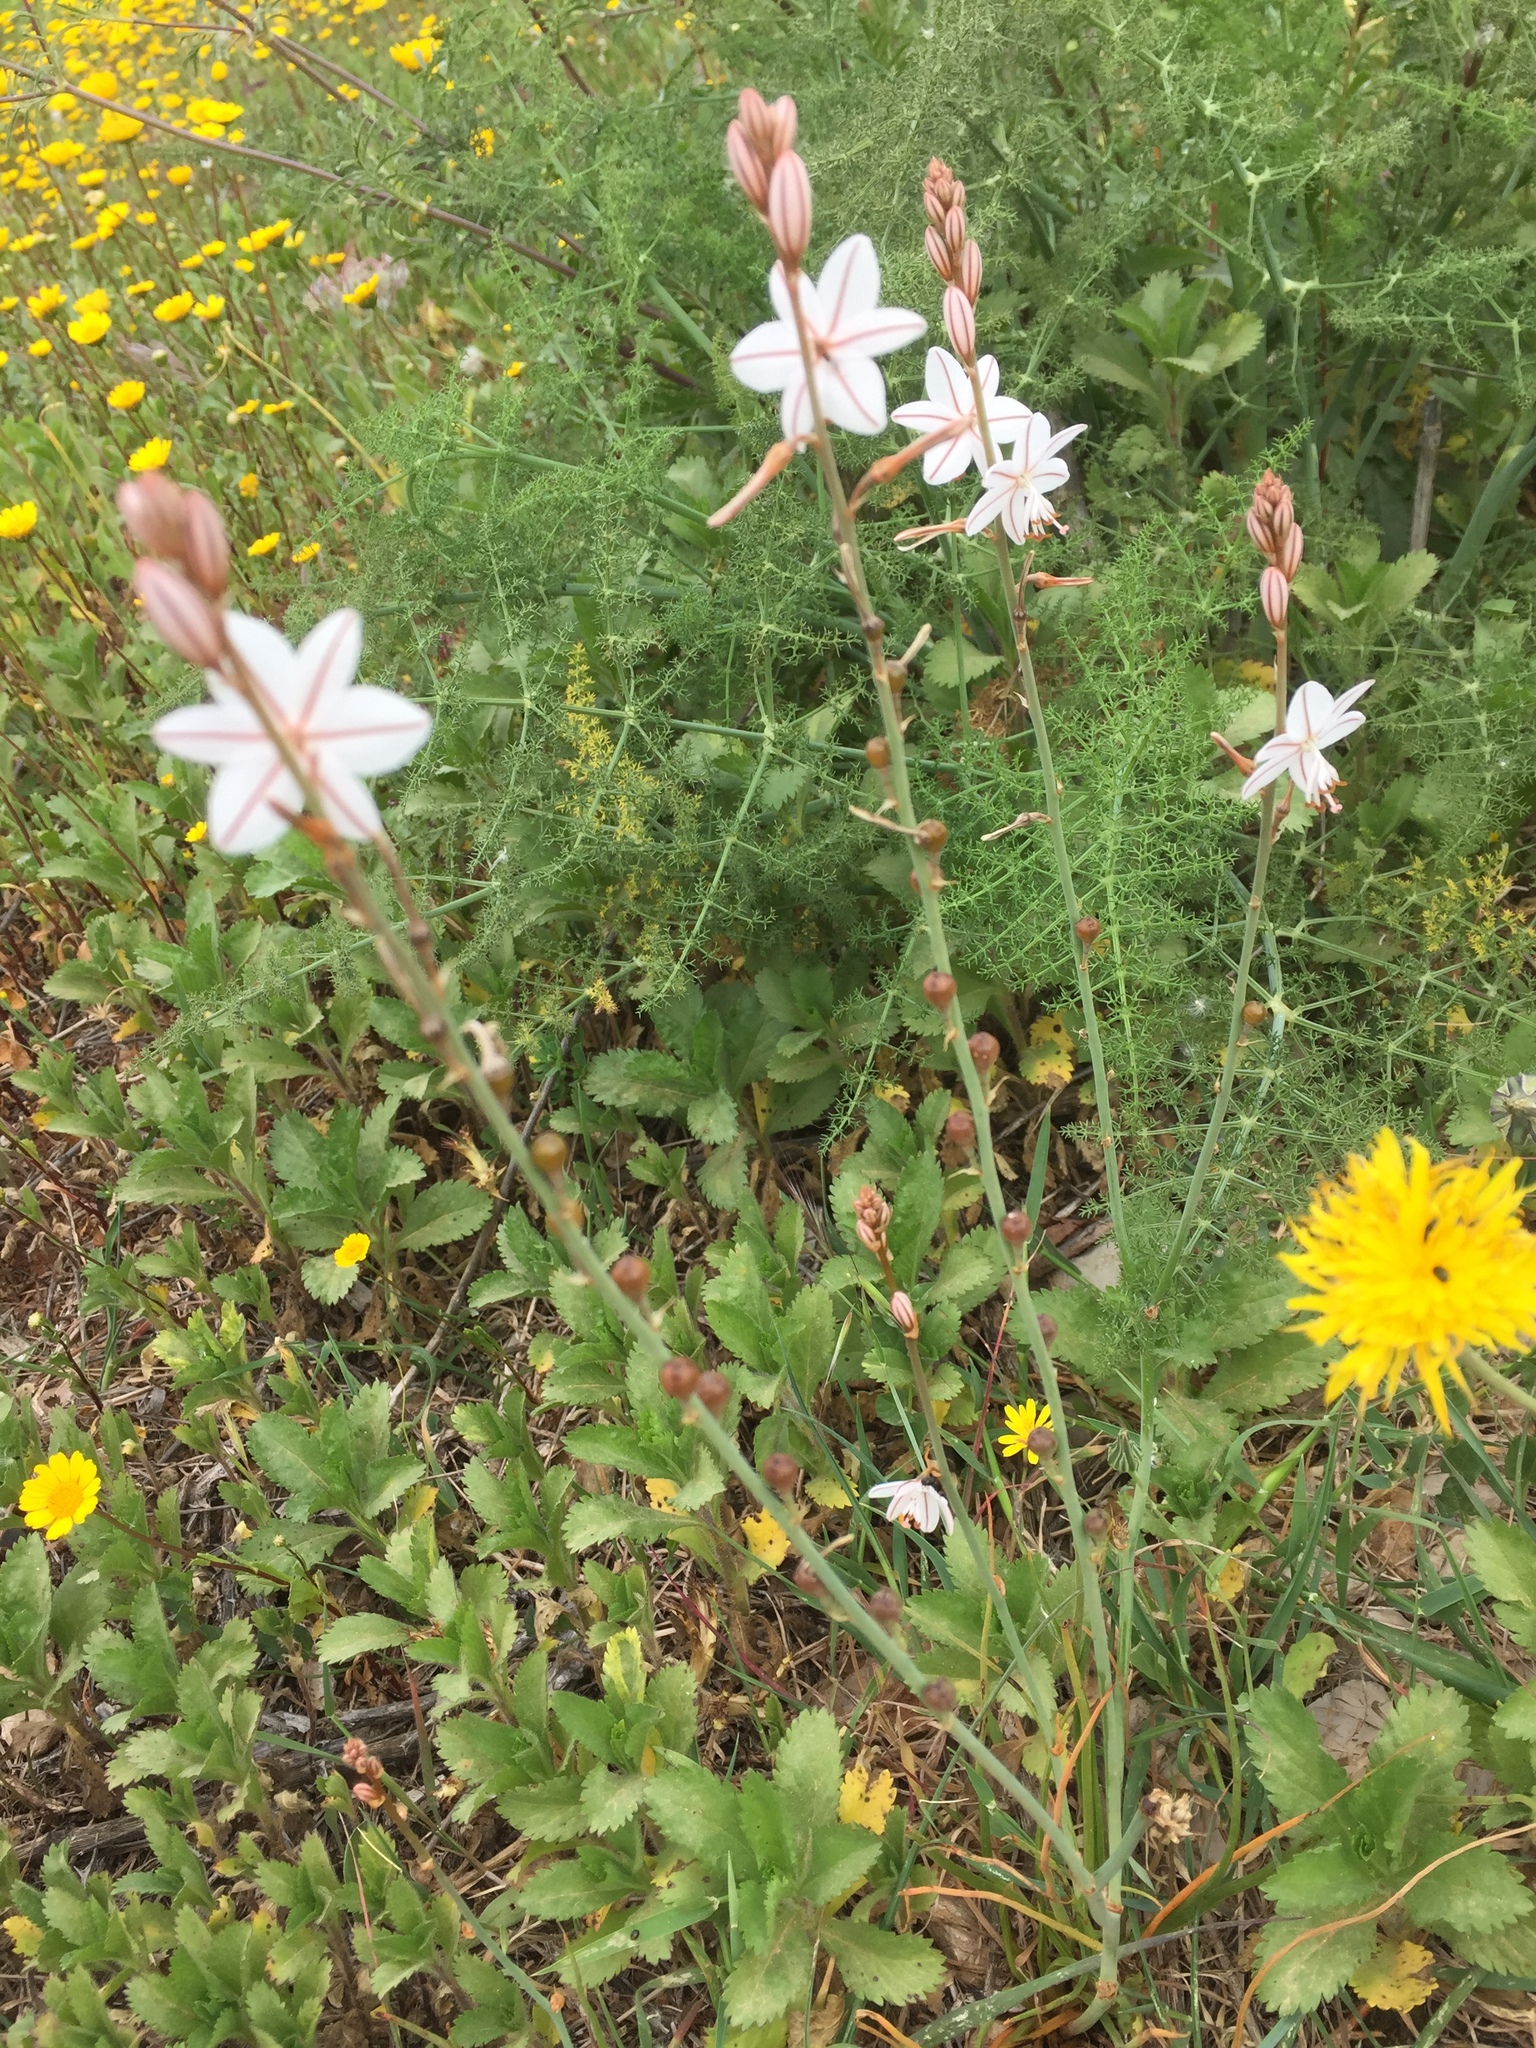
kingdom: Plantae
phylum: Tracheophyta
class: Liliopsida
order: Asparagales
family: Asphodelaceae
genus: Asphodelus
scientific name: Asphodelus ramosus
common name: Silverrod
